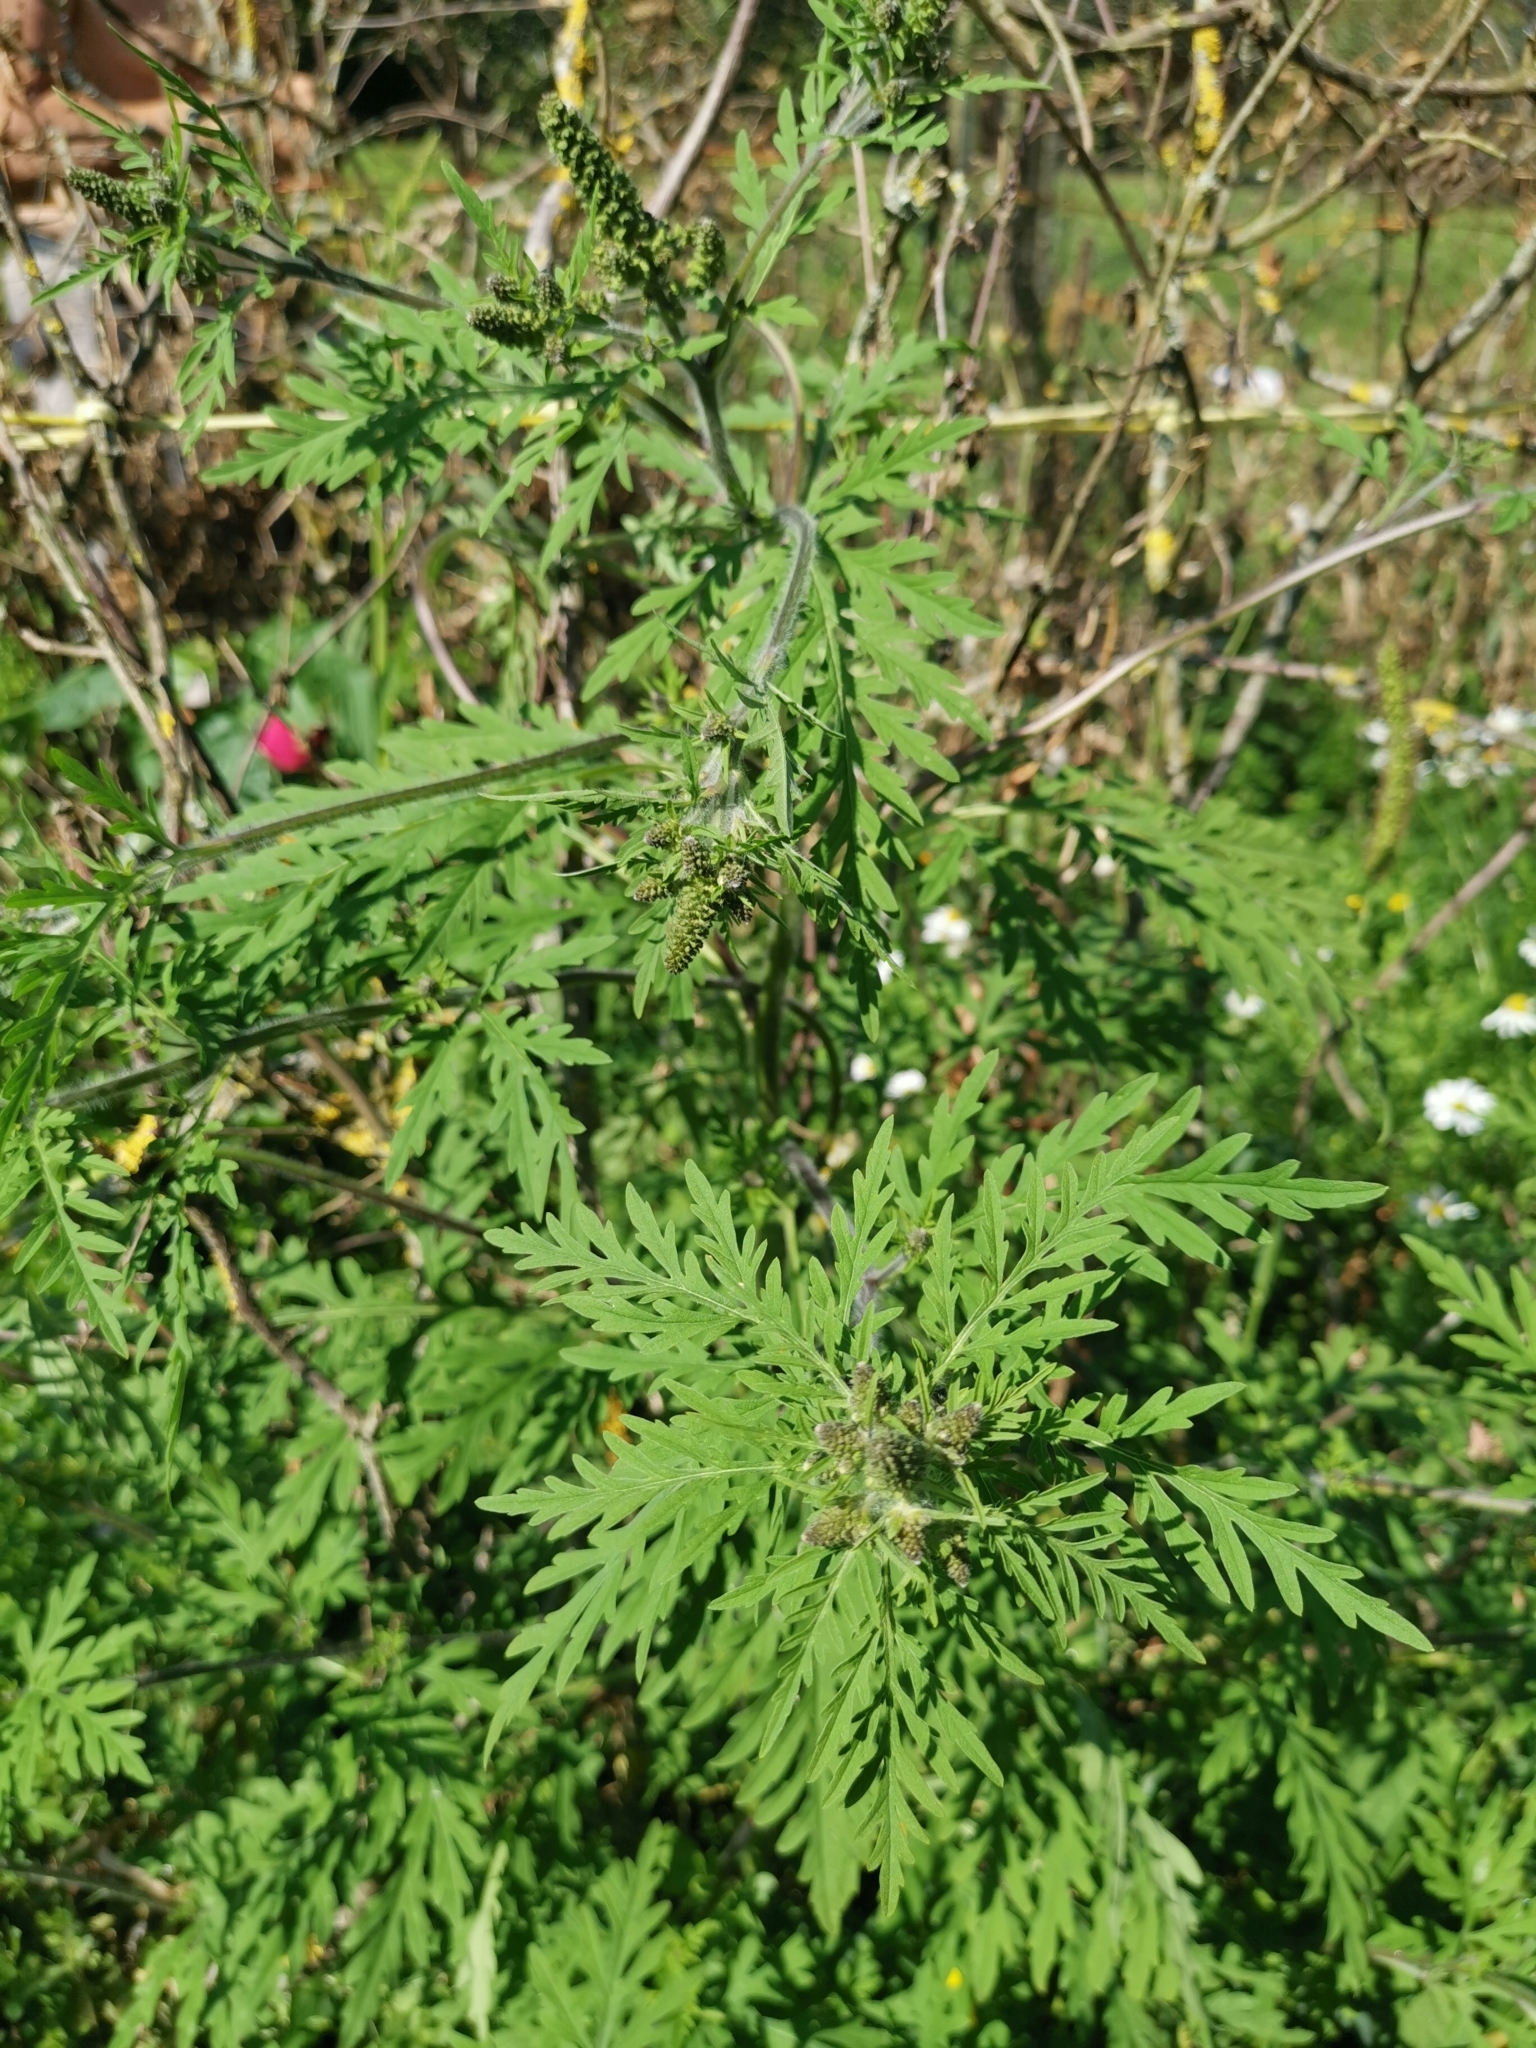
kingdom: Plantae
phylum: Tracheophyta
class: Magnoliopsida
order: Asterales
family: Asteraceae
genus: Ambrosia
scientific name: Ambrosia artemisiifolia
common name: Annual ragweed
